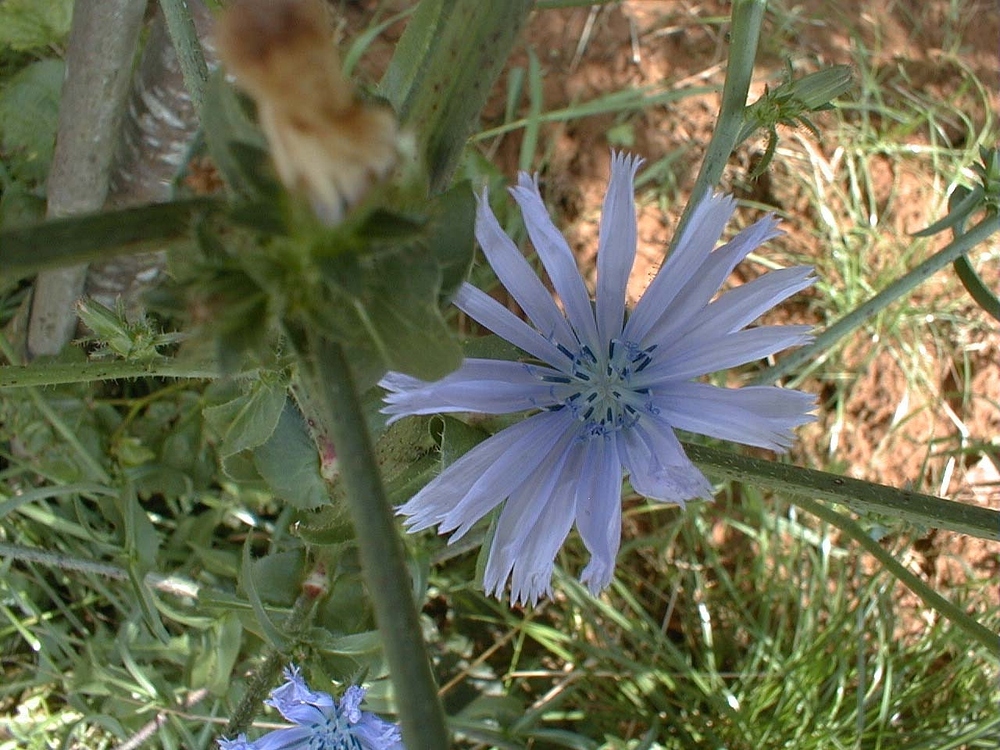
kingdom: Plantae
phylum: Tracheophyta
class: Magnoliopsida
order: Asterales
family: Asteraceae
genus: Cichorium
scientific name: Cichorium intybus
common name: Chicory
